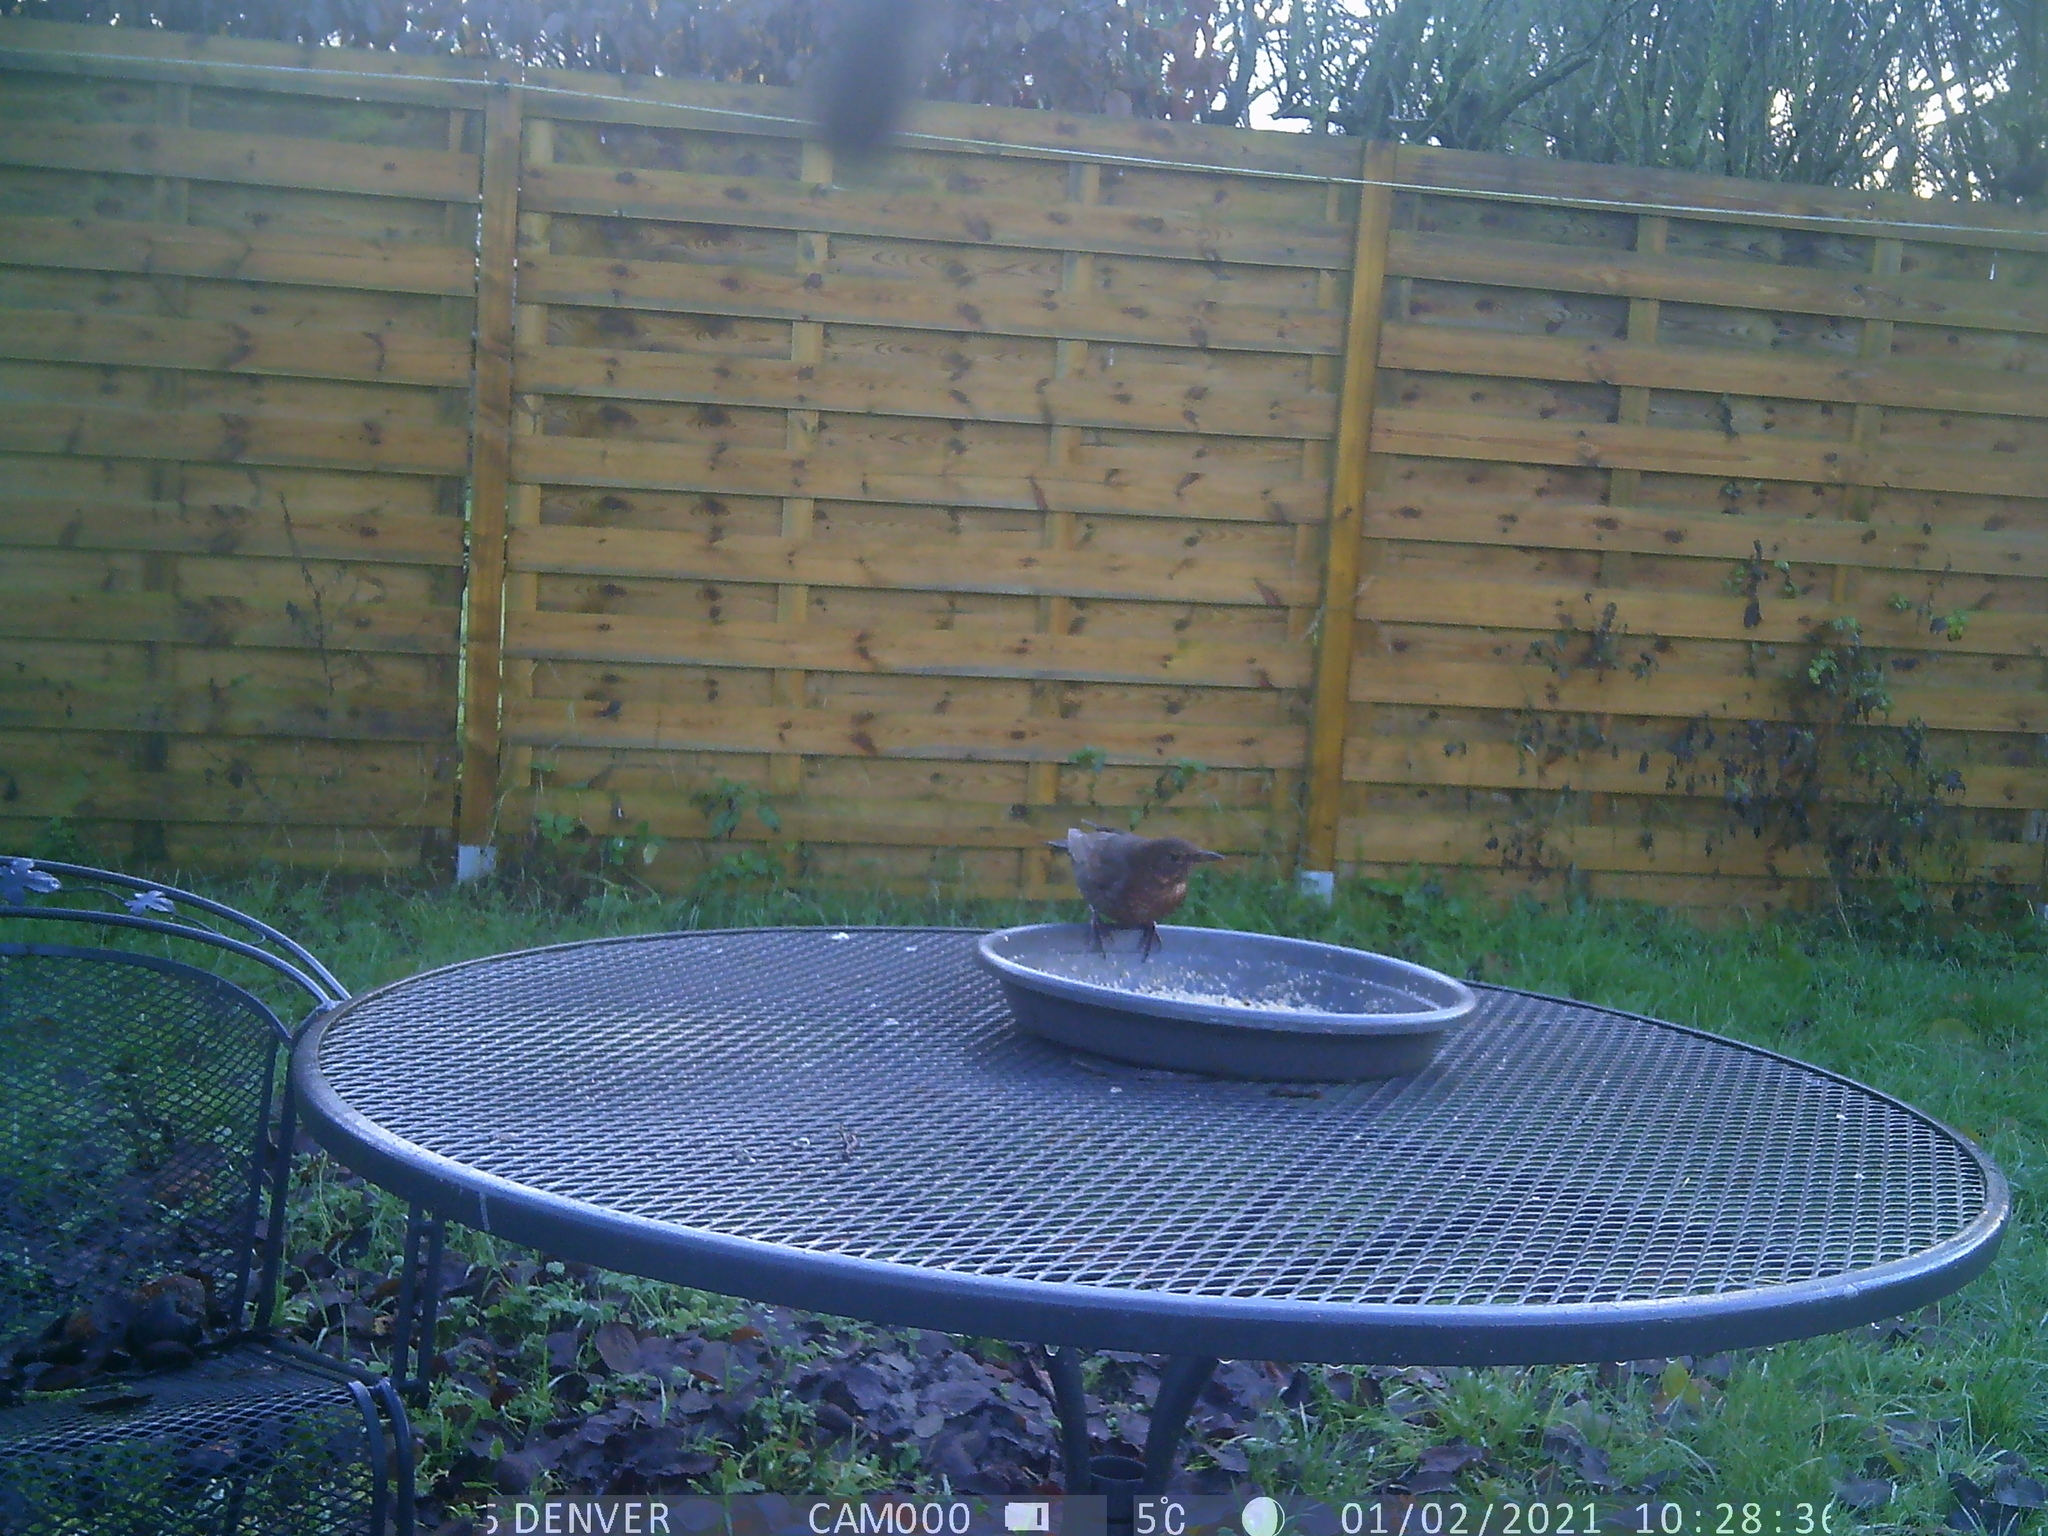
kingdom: Animalia
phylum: Chordata
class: Aves
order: Passeriformes
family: Turdidae
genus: Turdus
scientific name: Turdus merula
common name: Common blackbird
